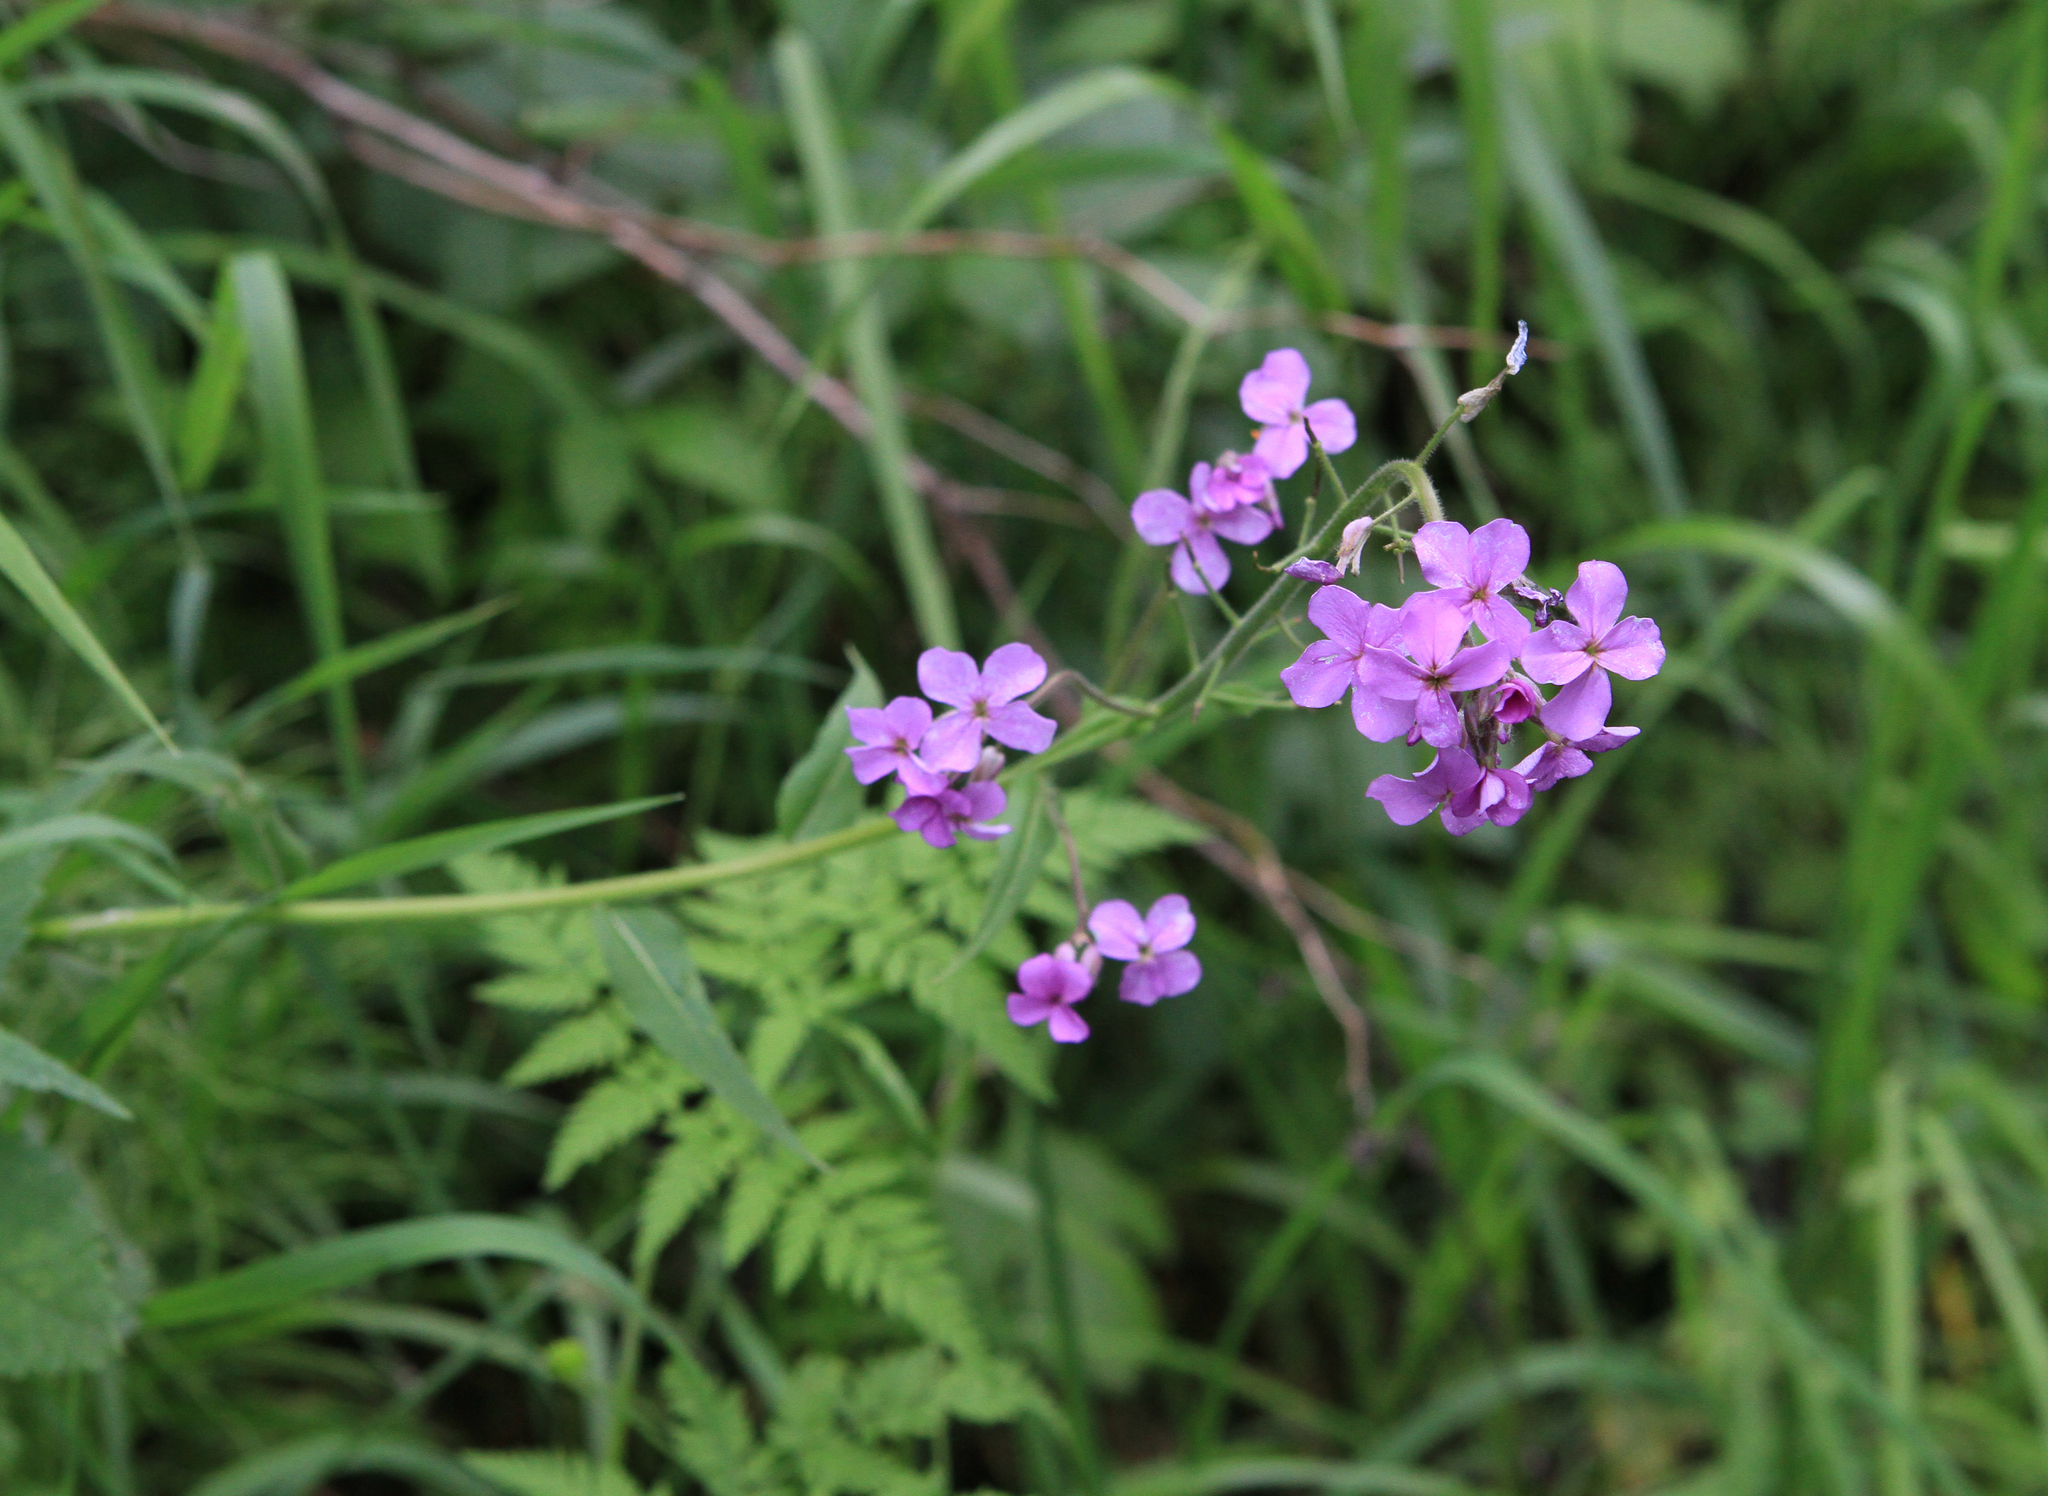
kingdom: Plantae
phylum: Tracheophyta
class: Magnoliopsida
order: Brassicales
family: Brassicaceae
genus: Hesperis
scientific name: Hesperis sibirica
